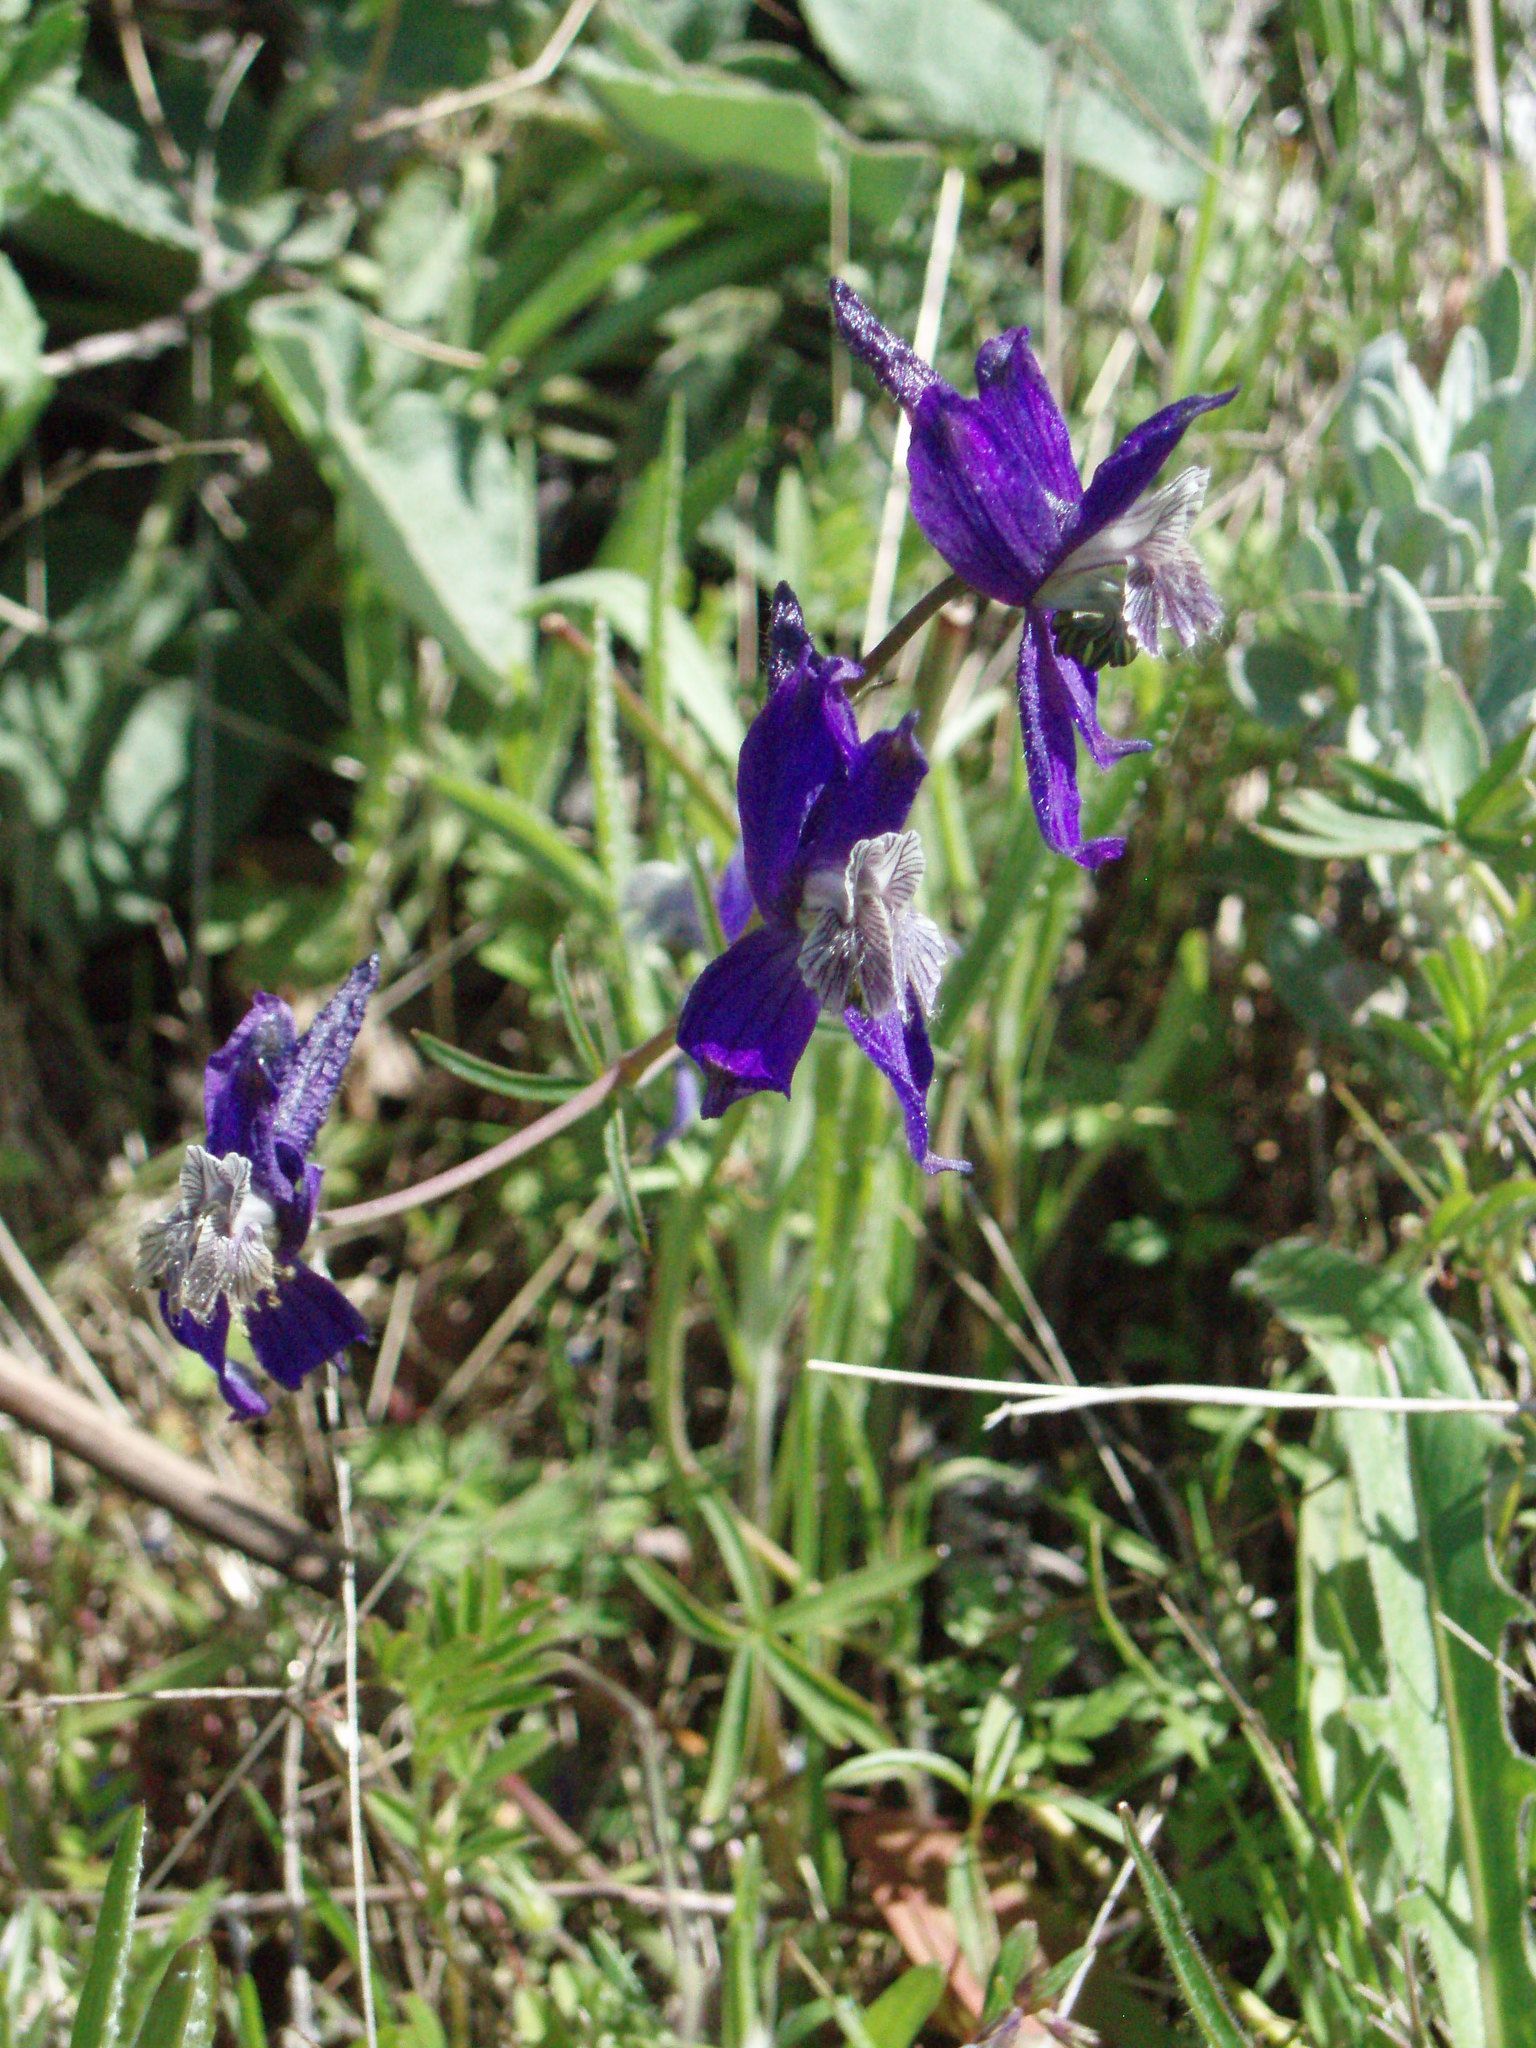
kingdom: Plantae
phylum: Tracheophyta
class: Magnoliopsida
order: Ranunculales
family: Ranunculaceae
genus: Delphinium
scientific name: Delphinium nuttallianum
